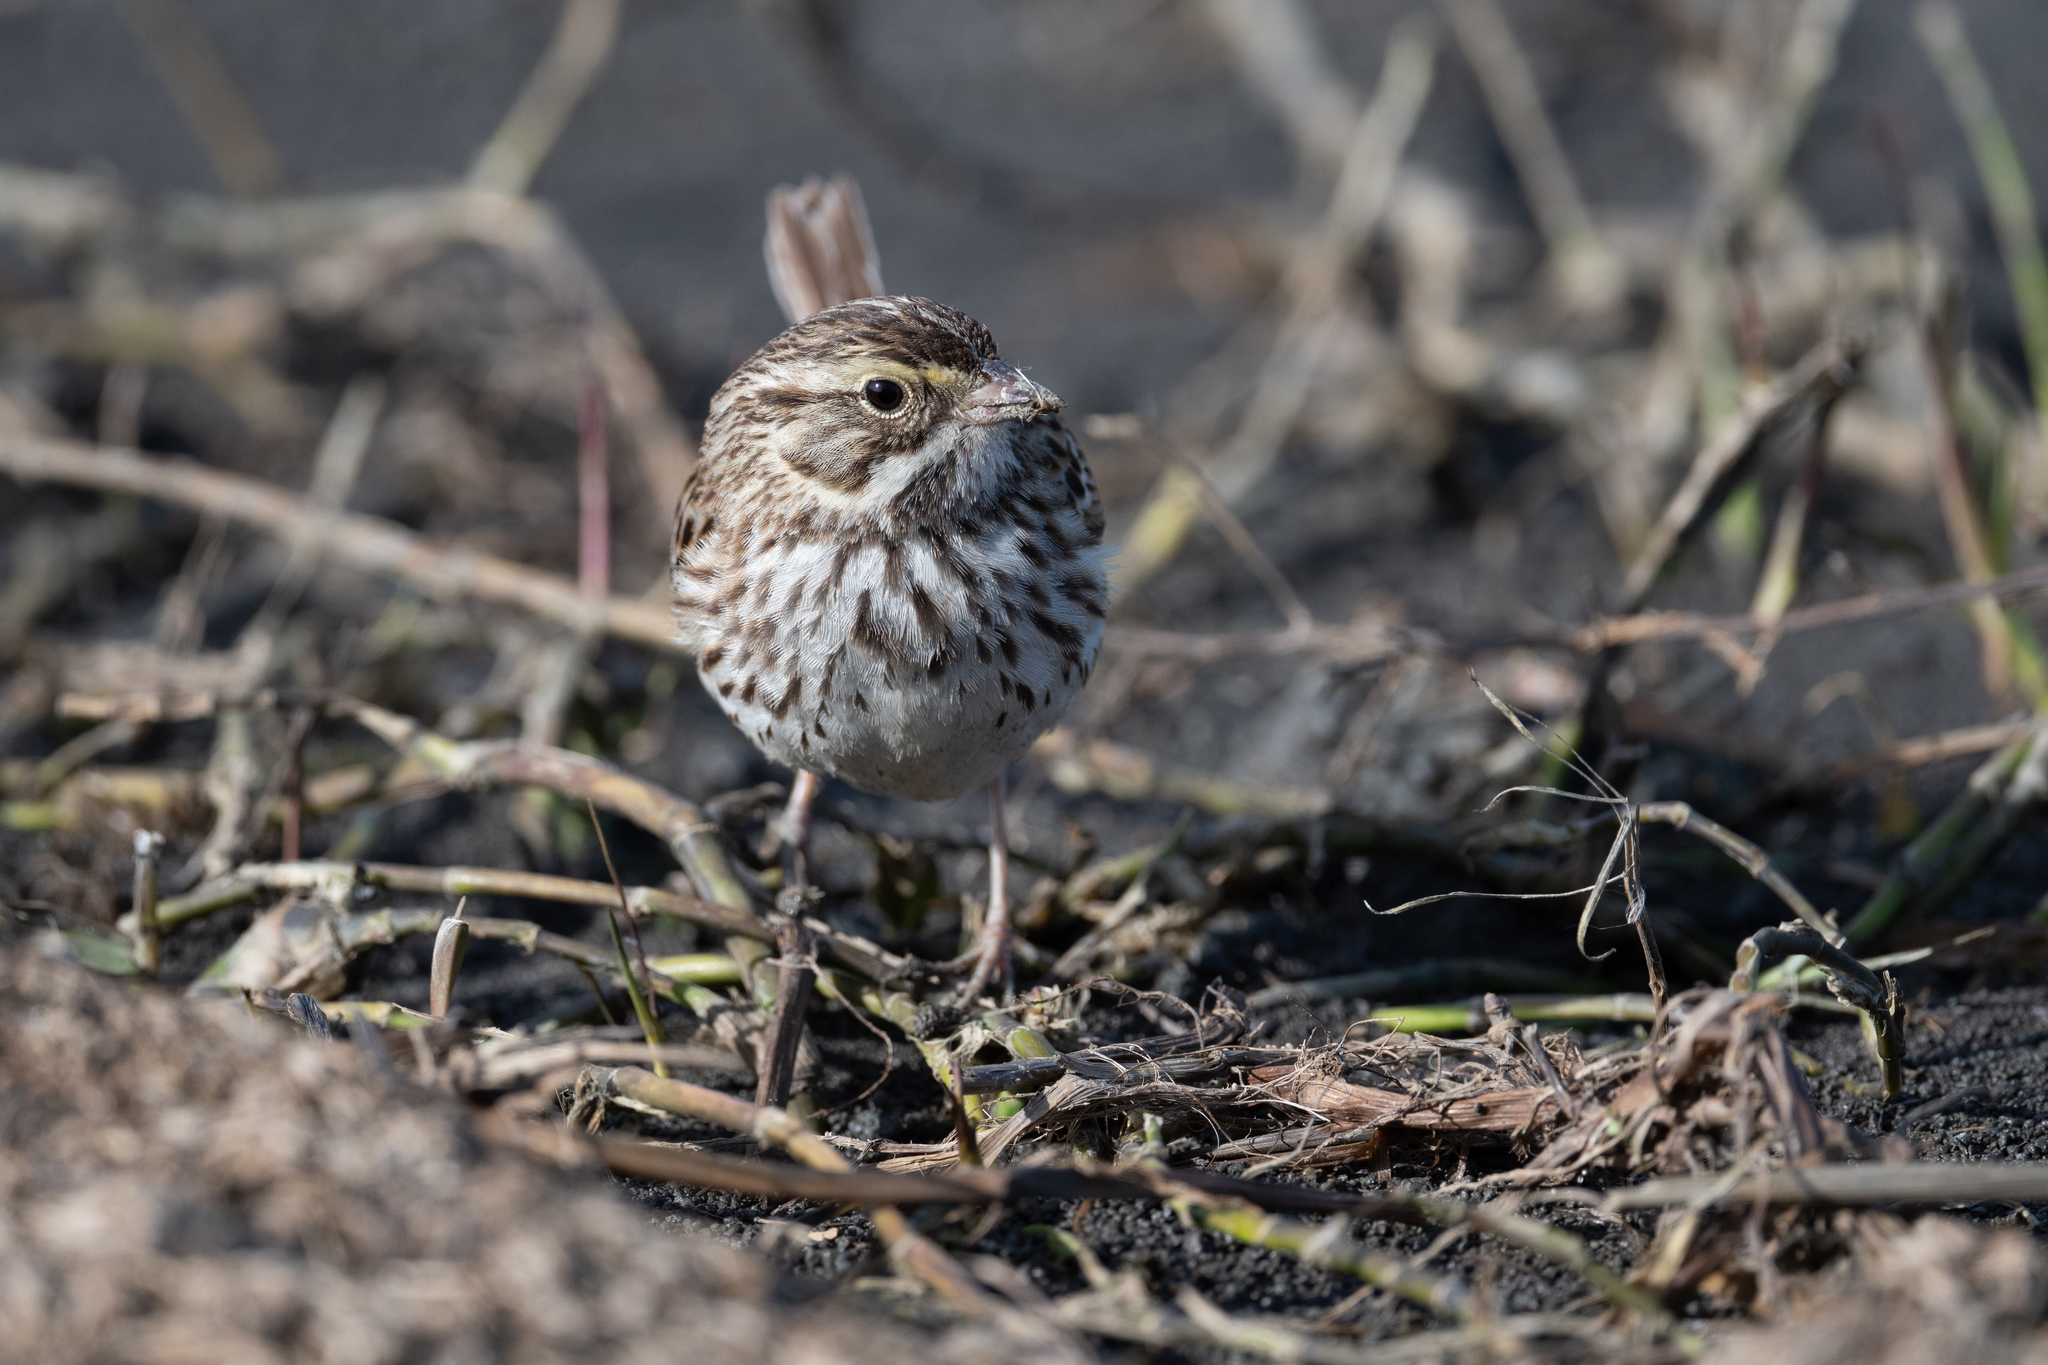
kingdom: Animalia
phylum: Chordata
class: Aves
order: Passeriformes
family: Passerellidae
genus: Passerculus
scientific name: Passerculus sandwichensis
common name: Savannah sparrow
